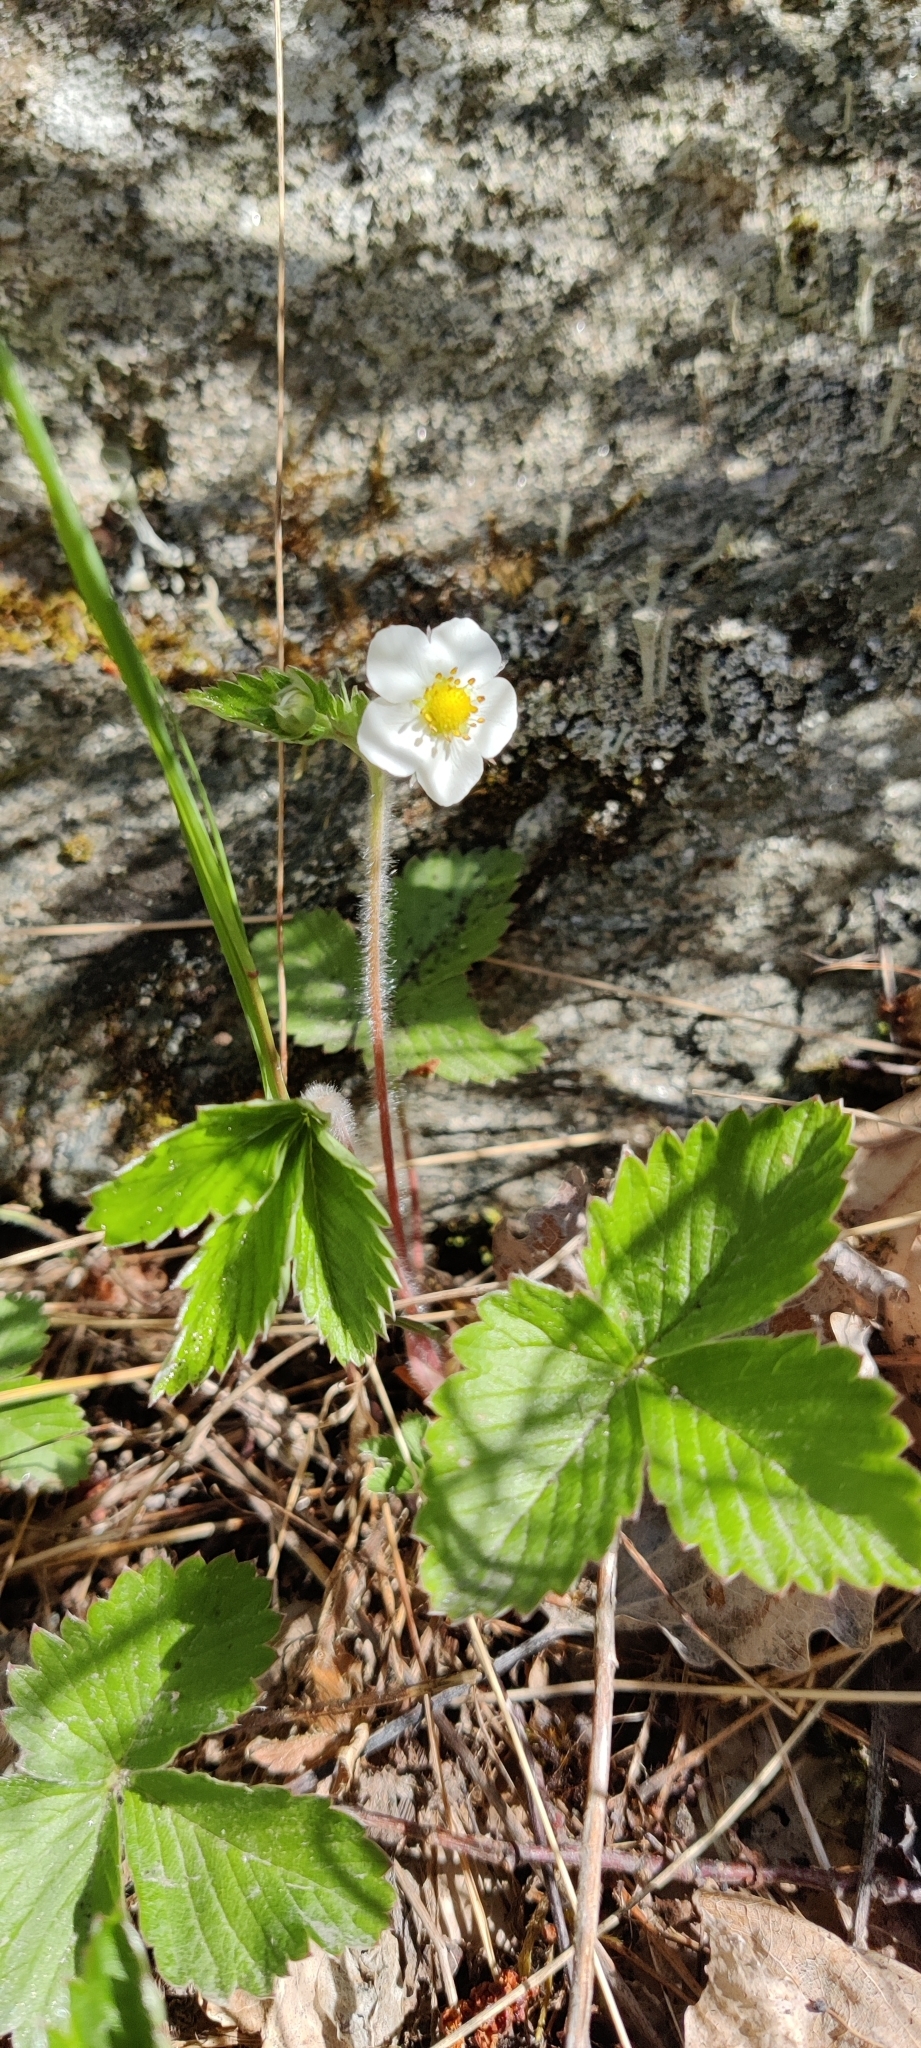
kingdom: Plantae
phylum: Tracheophyta
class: Magnoliopsida
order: Rosales
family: Rosaceae
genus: Fragaria
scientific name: Fragaria vesca
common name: Wild strawberry
